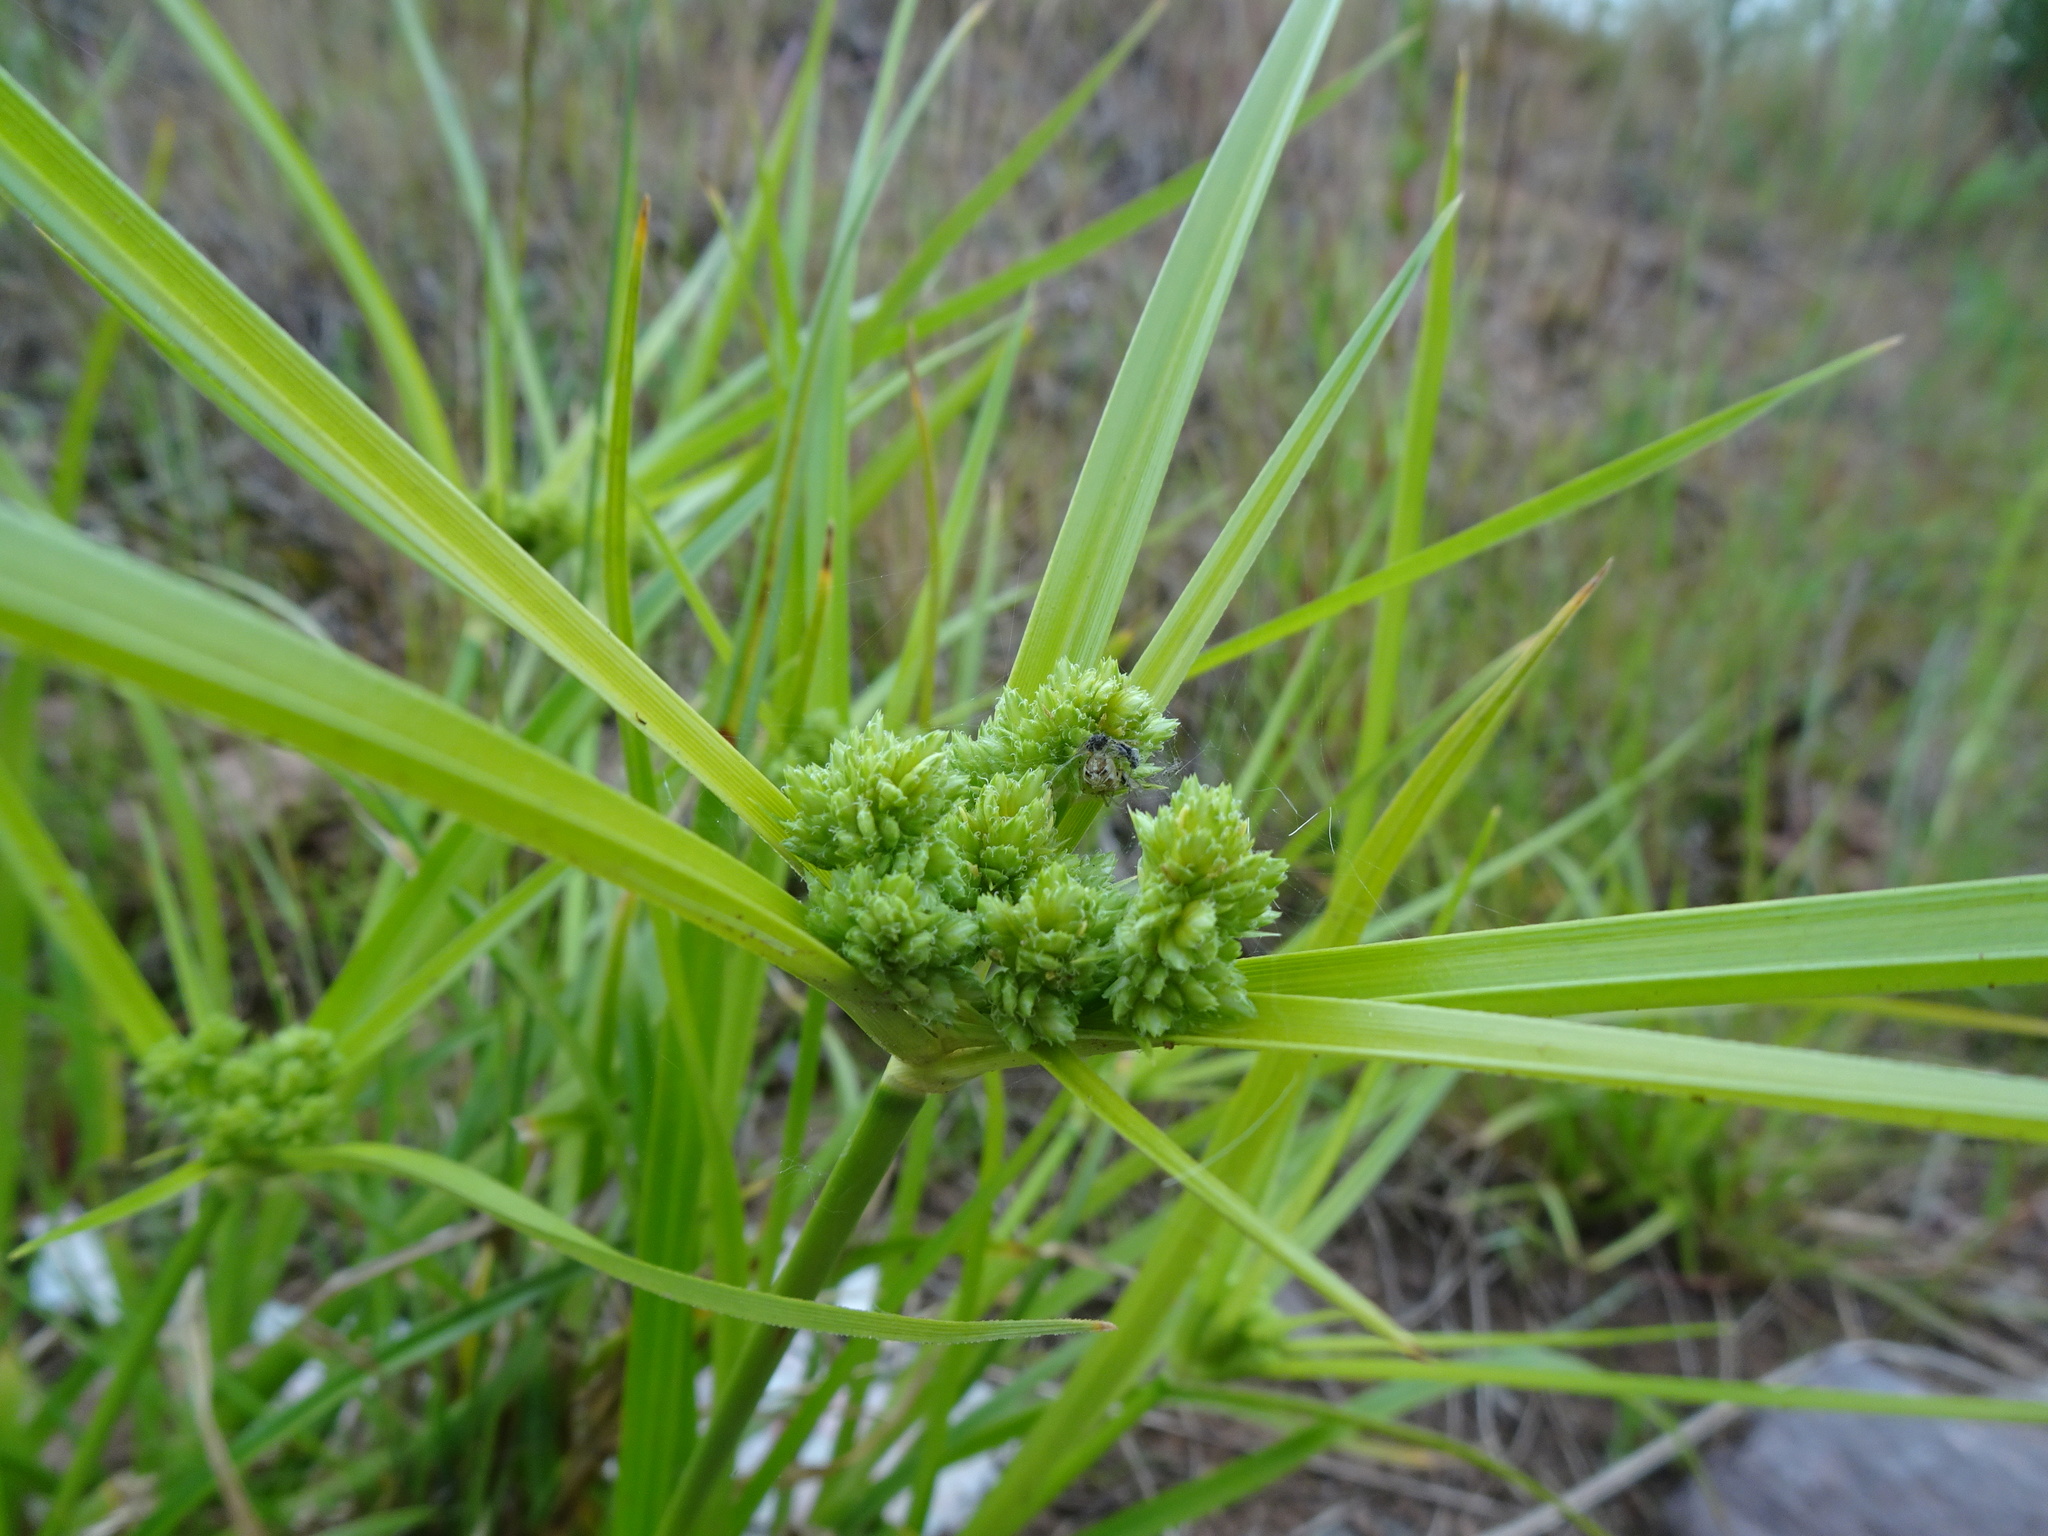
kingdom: Plantae
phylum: Tracheophyta
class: Liliopsida
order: Poales
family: Cyperaceae
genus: Cyperus
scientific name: Cyperus eragrostis
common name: Tall flatsedge
